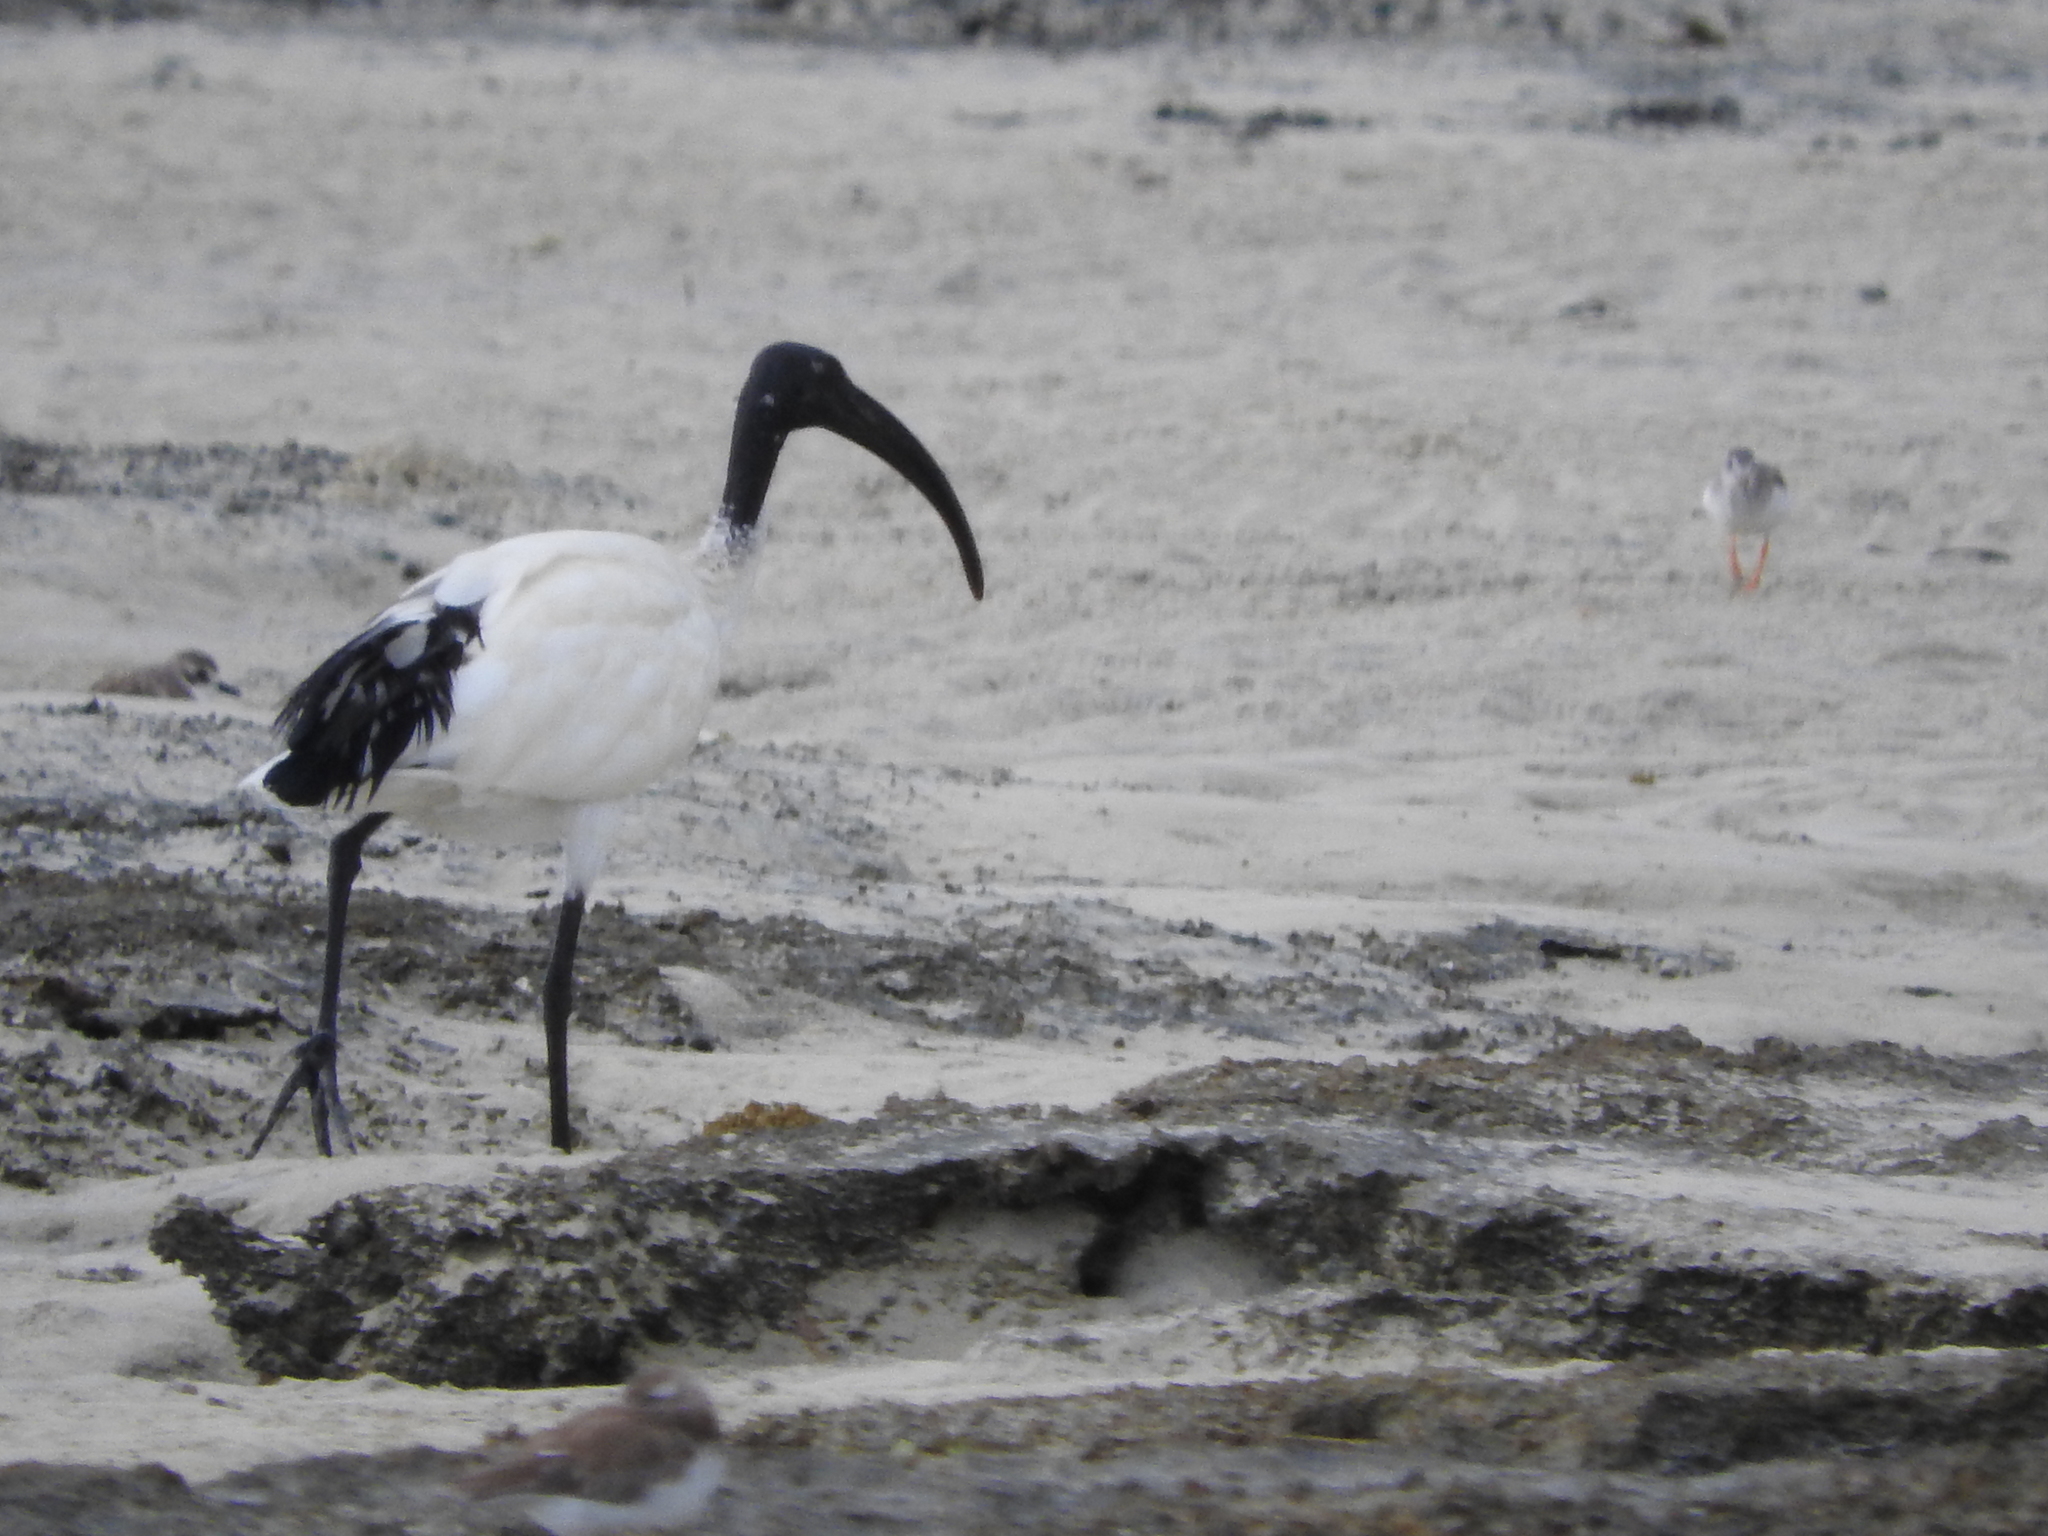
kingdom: Animalia
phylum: Chordata
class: Aves
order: Pelecaniformes
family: Threskiornithidae
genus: Threskiornis
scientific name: Threskiornis aethiopicus
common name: Sacred ibis
